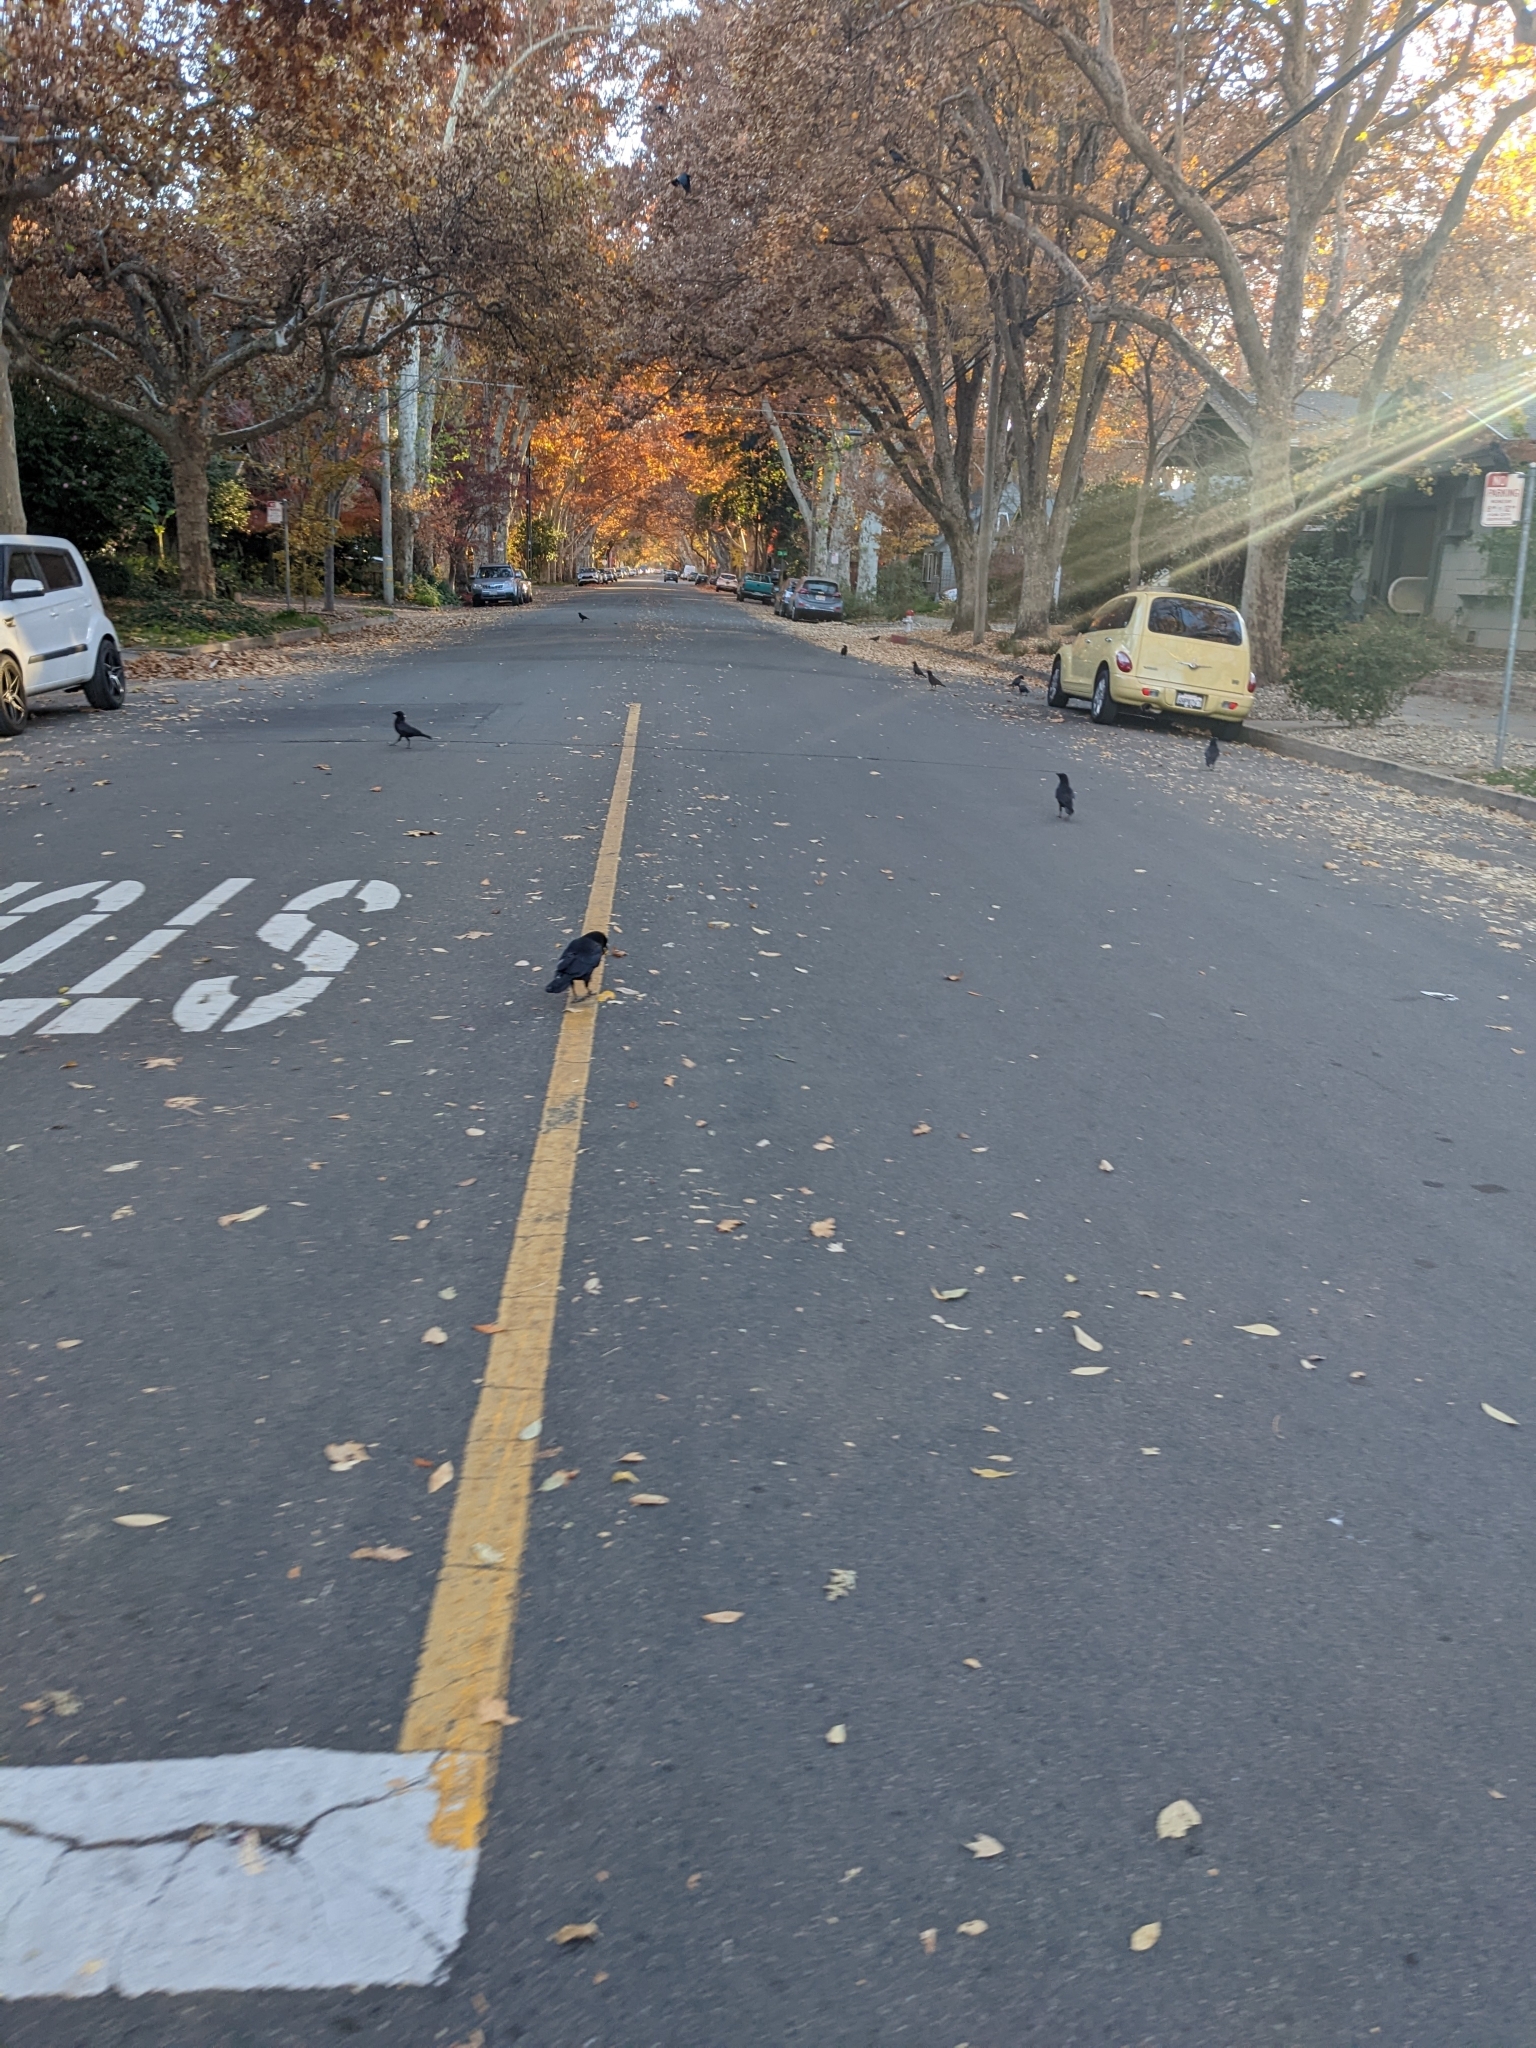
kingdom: Animalia
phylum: Chordata
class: Aves
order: Passeriformes
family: Corvidae
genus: Corvus
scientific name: Corvus brachyrhynchos
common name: American crow
